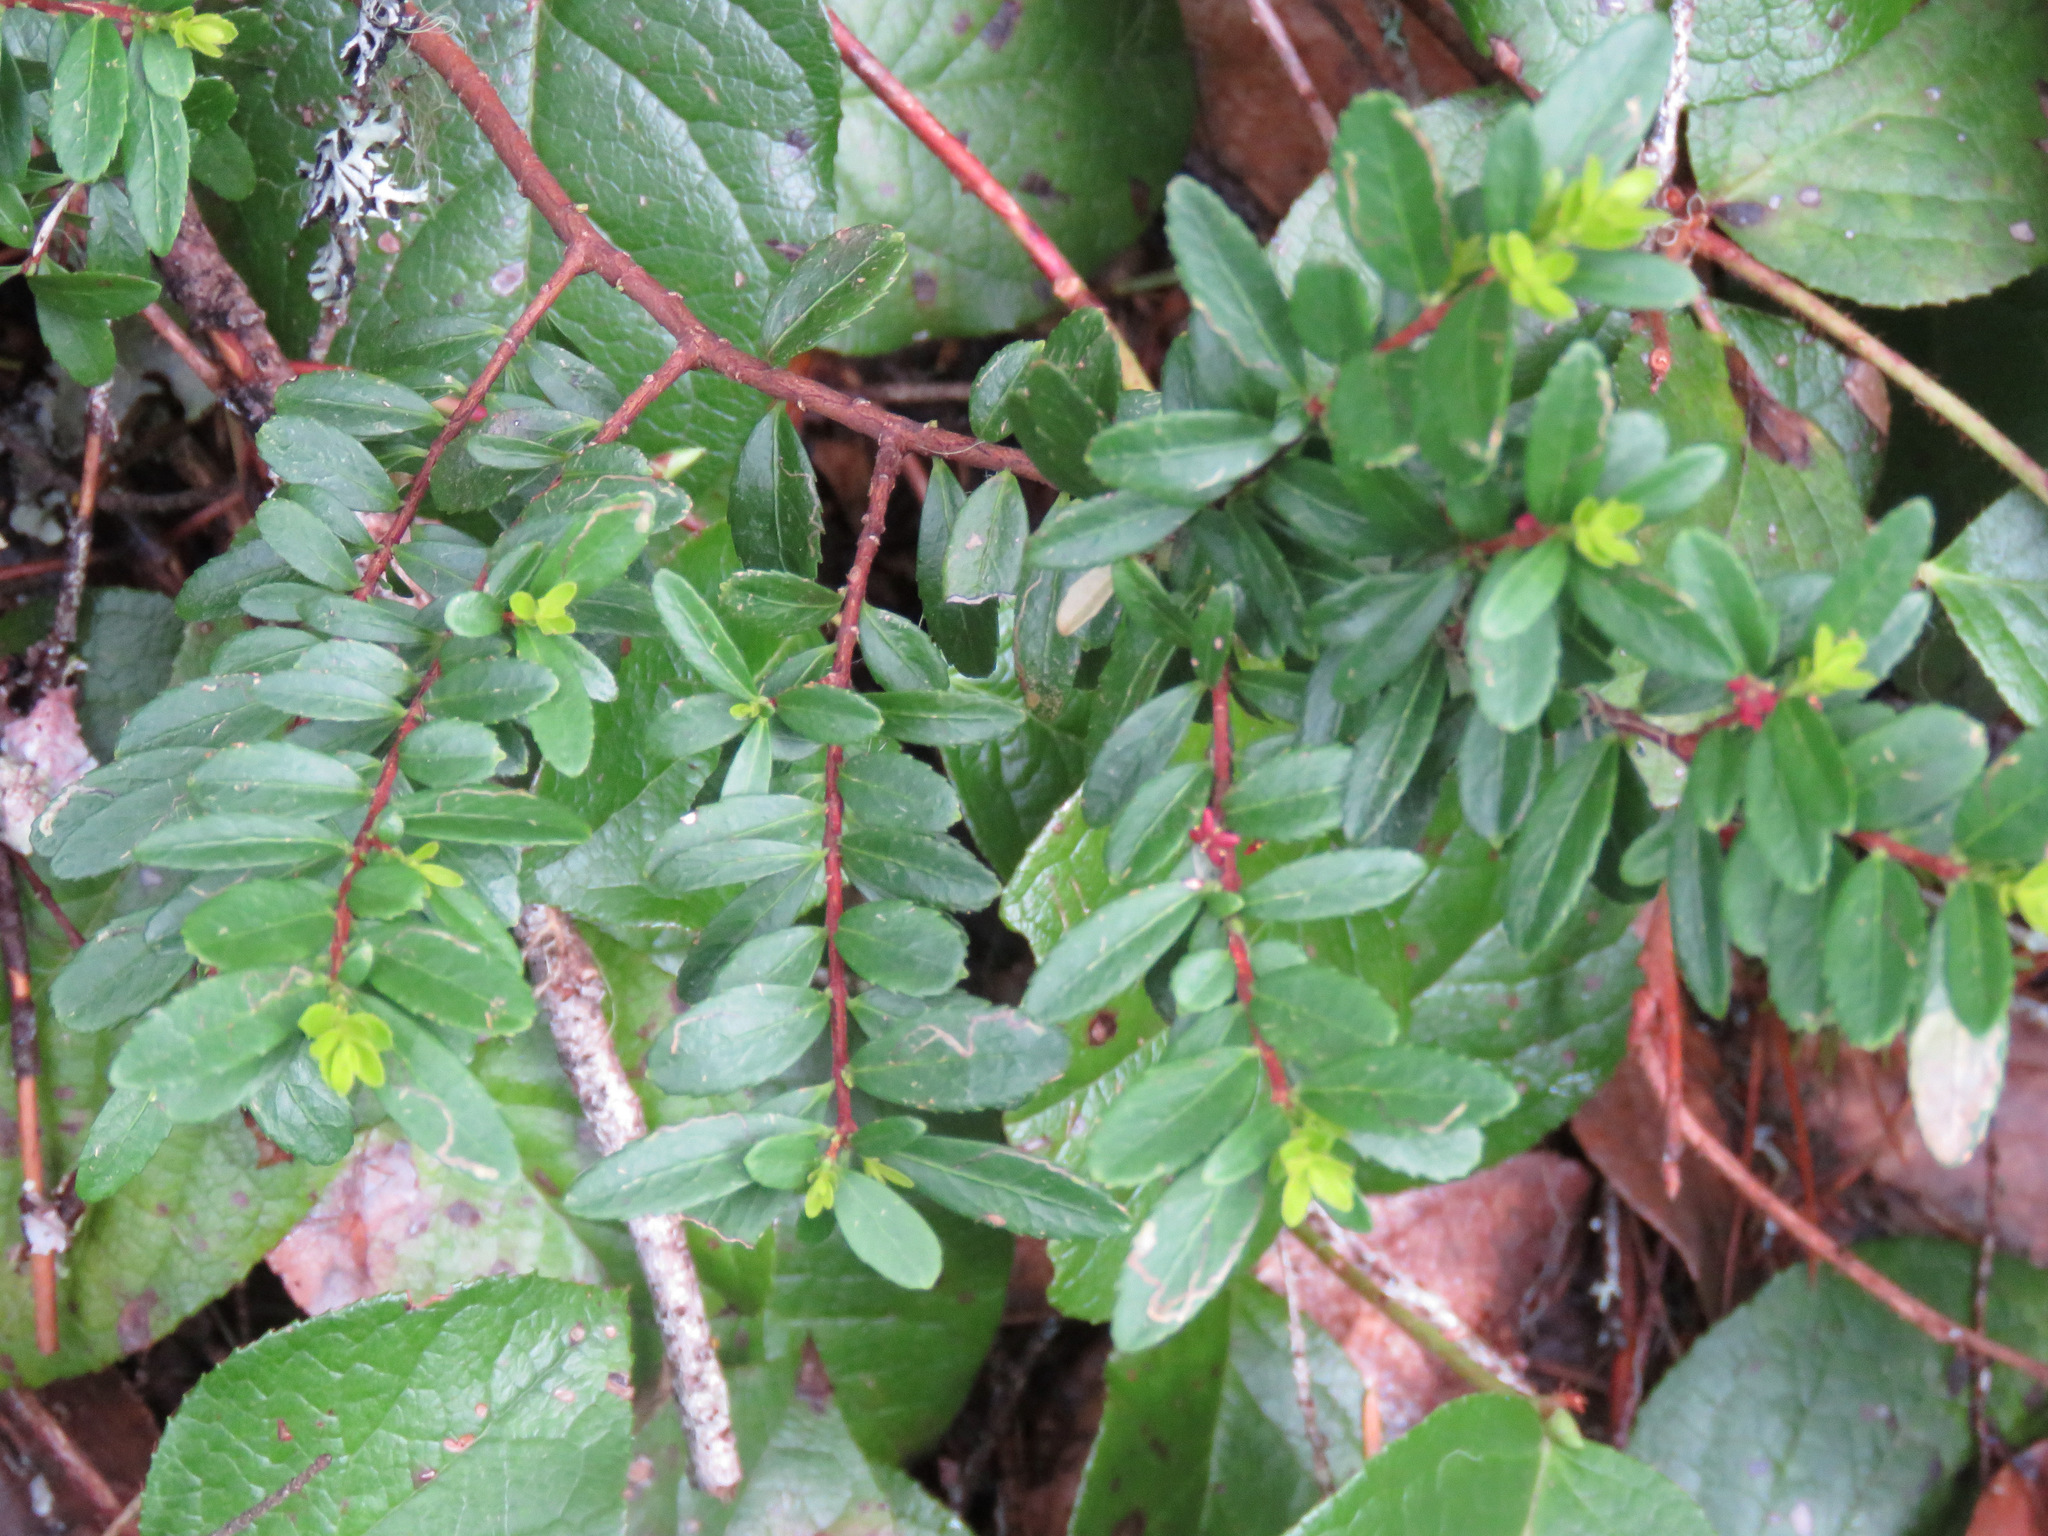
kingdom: Plantae
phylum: Tracheophyta
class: Magnoliopsida
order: Celastrales
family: Celastraceae
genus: Paxistima
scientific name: Paxistima myrsinites
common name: Mountain-lover
